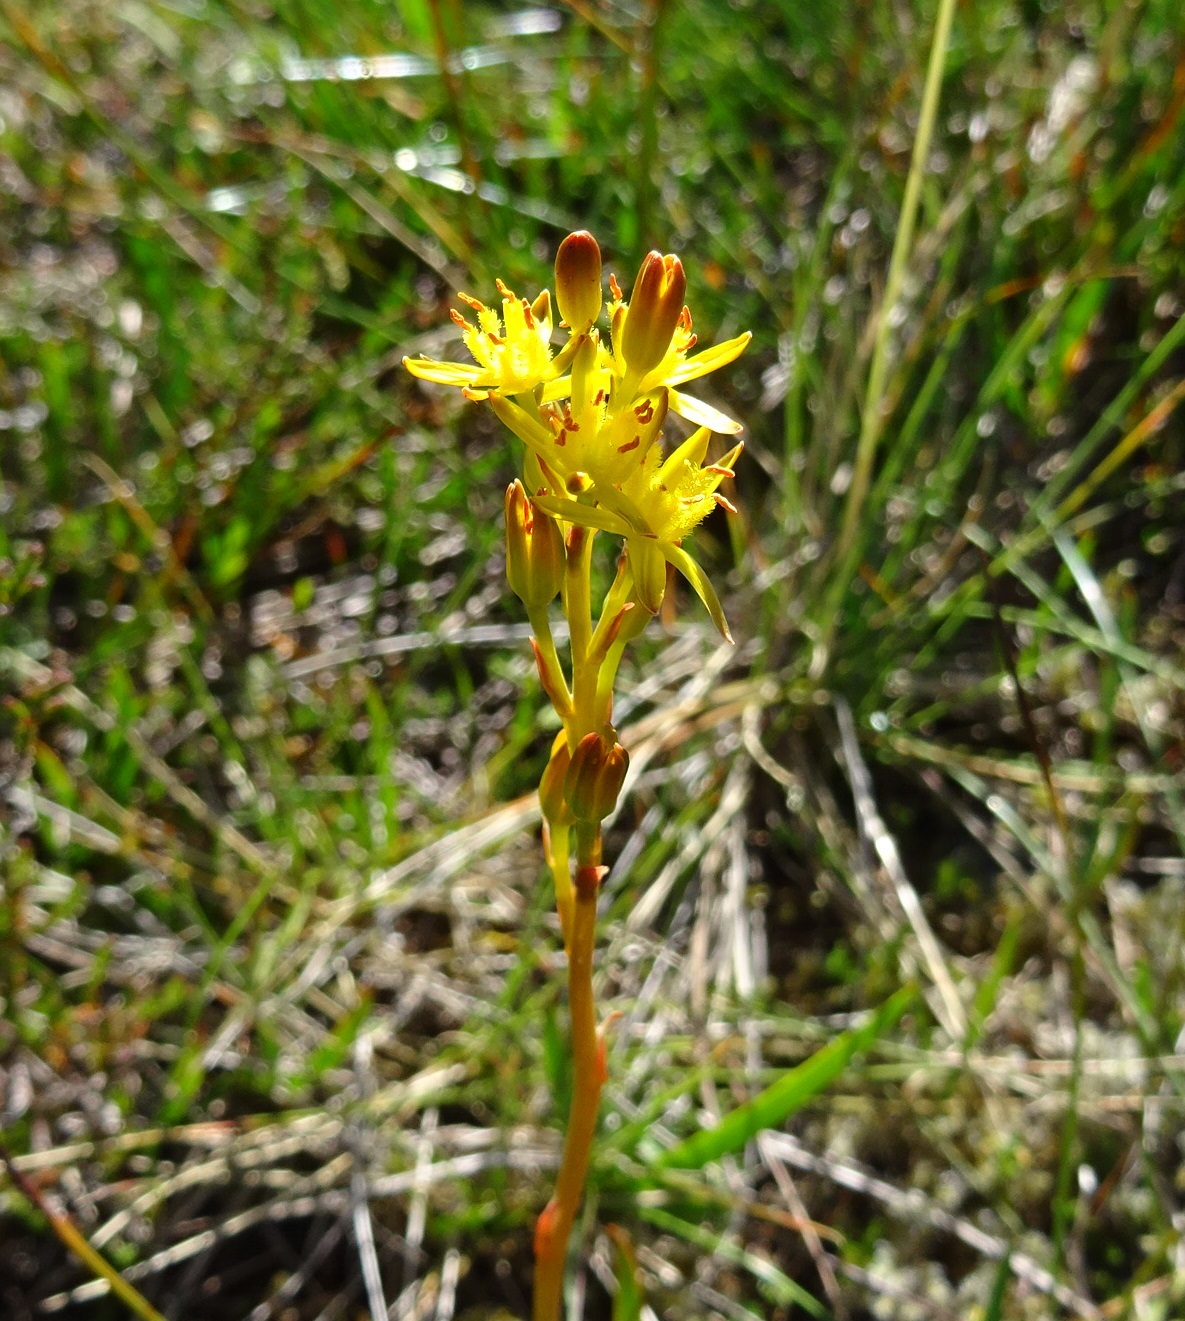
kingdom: Plantae
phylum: Tracheophyta
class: Liliopsida
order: Dioscoreales
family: Nartheciaceae
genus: Narthecium
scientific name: Narthecium ossifragum
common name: Bog asphodel
